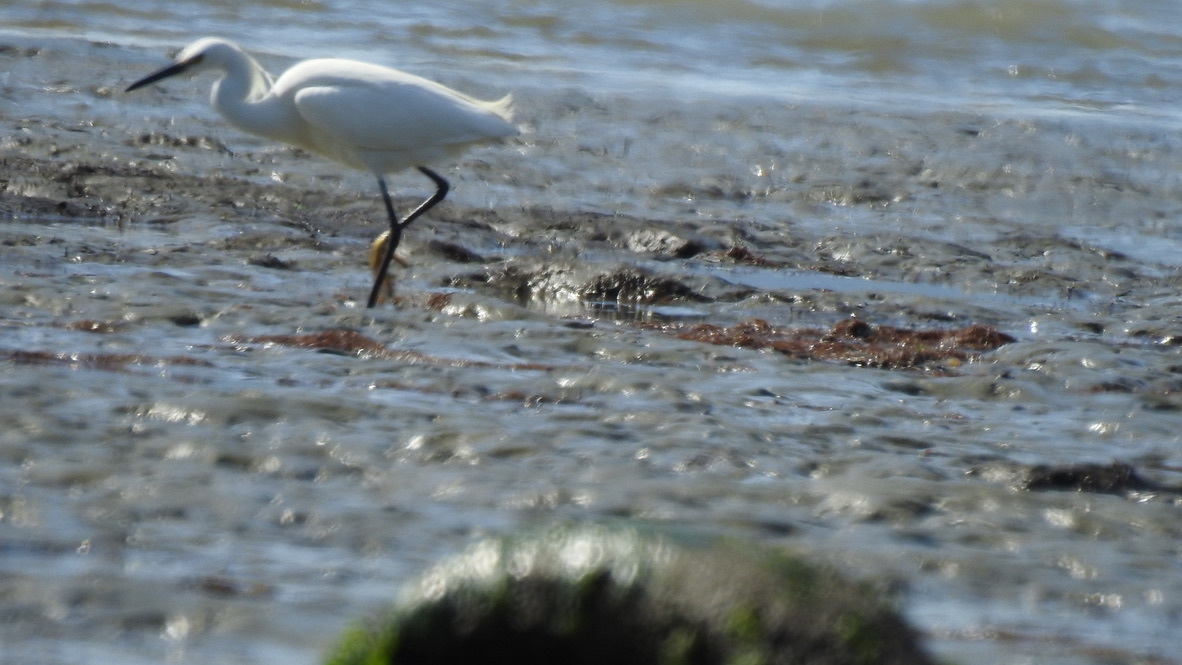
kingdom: Animalia
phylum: Chordata
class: Aves
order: Pelecaniformes
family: Ardeidae
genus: Egretta
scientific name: Egretta thula
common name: Snowy egret
